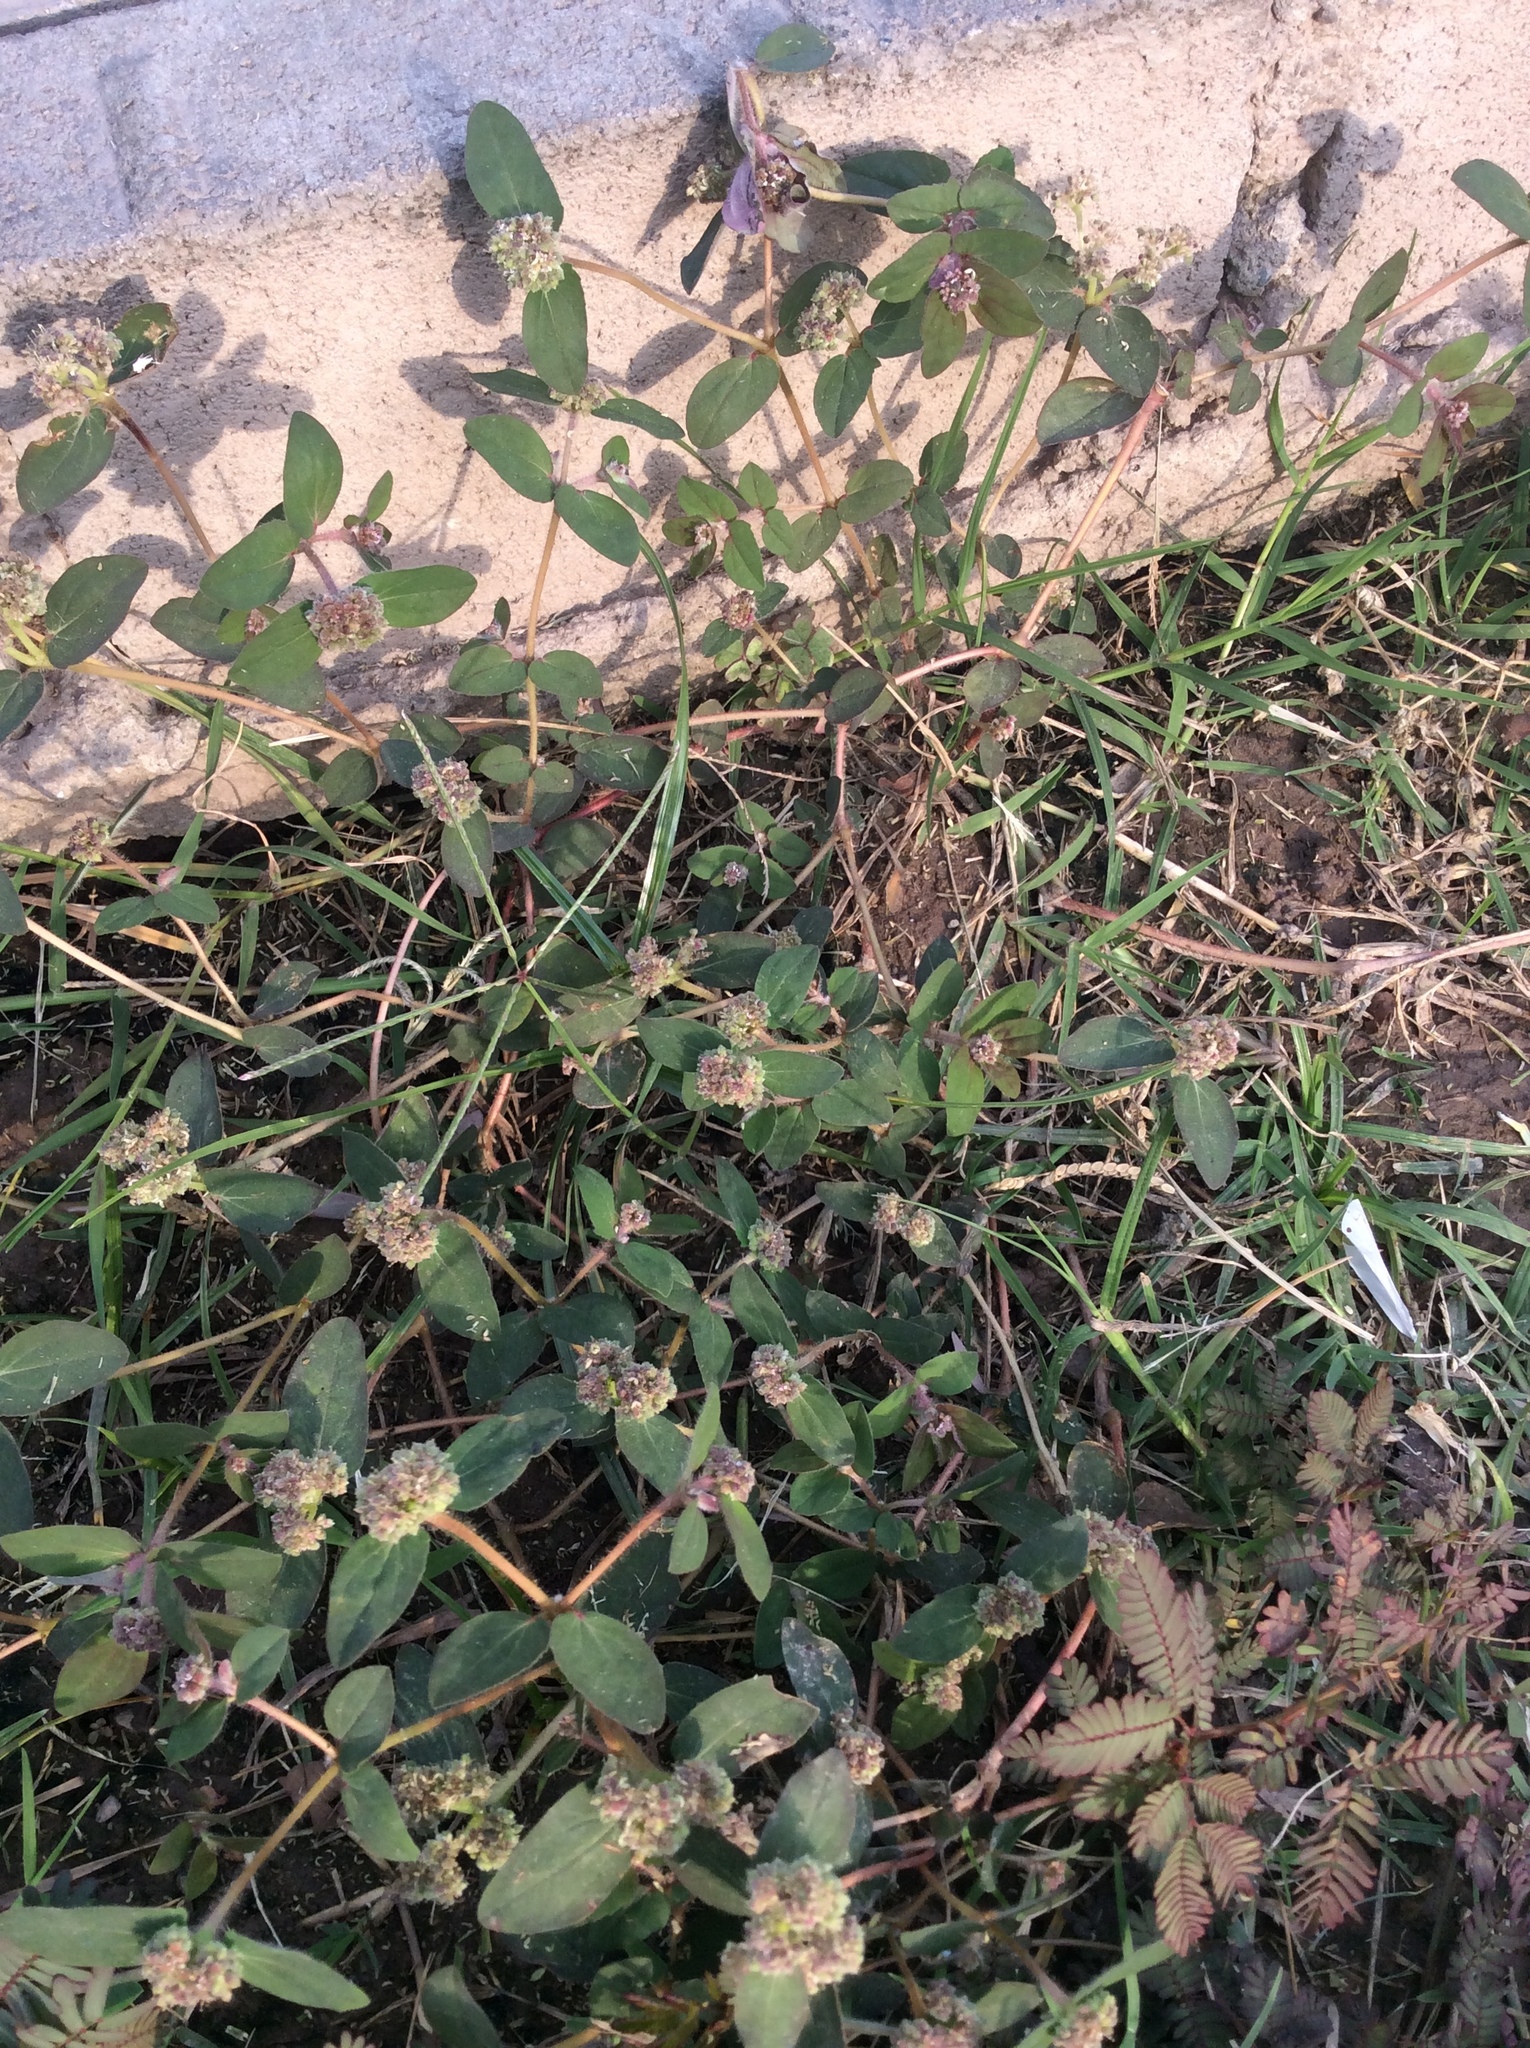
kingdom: Plantae
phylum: Tracheophyta
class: Magnoliopsida
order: Malpighiales
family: Euphorbiaceae
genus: Euphorbia
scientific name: Euphorbia ophthalmica
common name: Florida hammock sandmat
